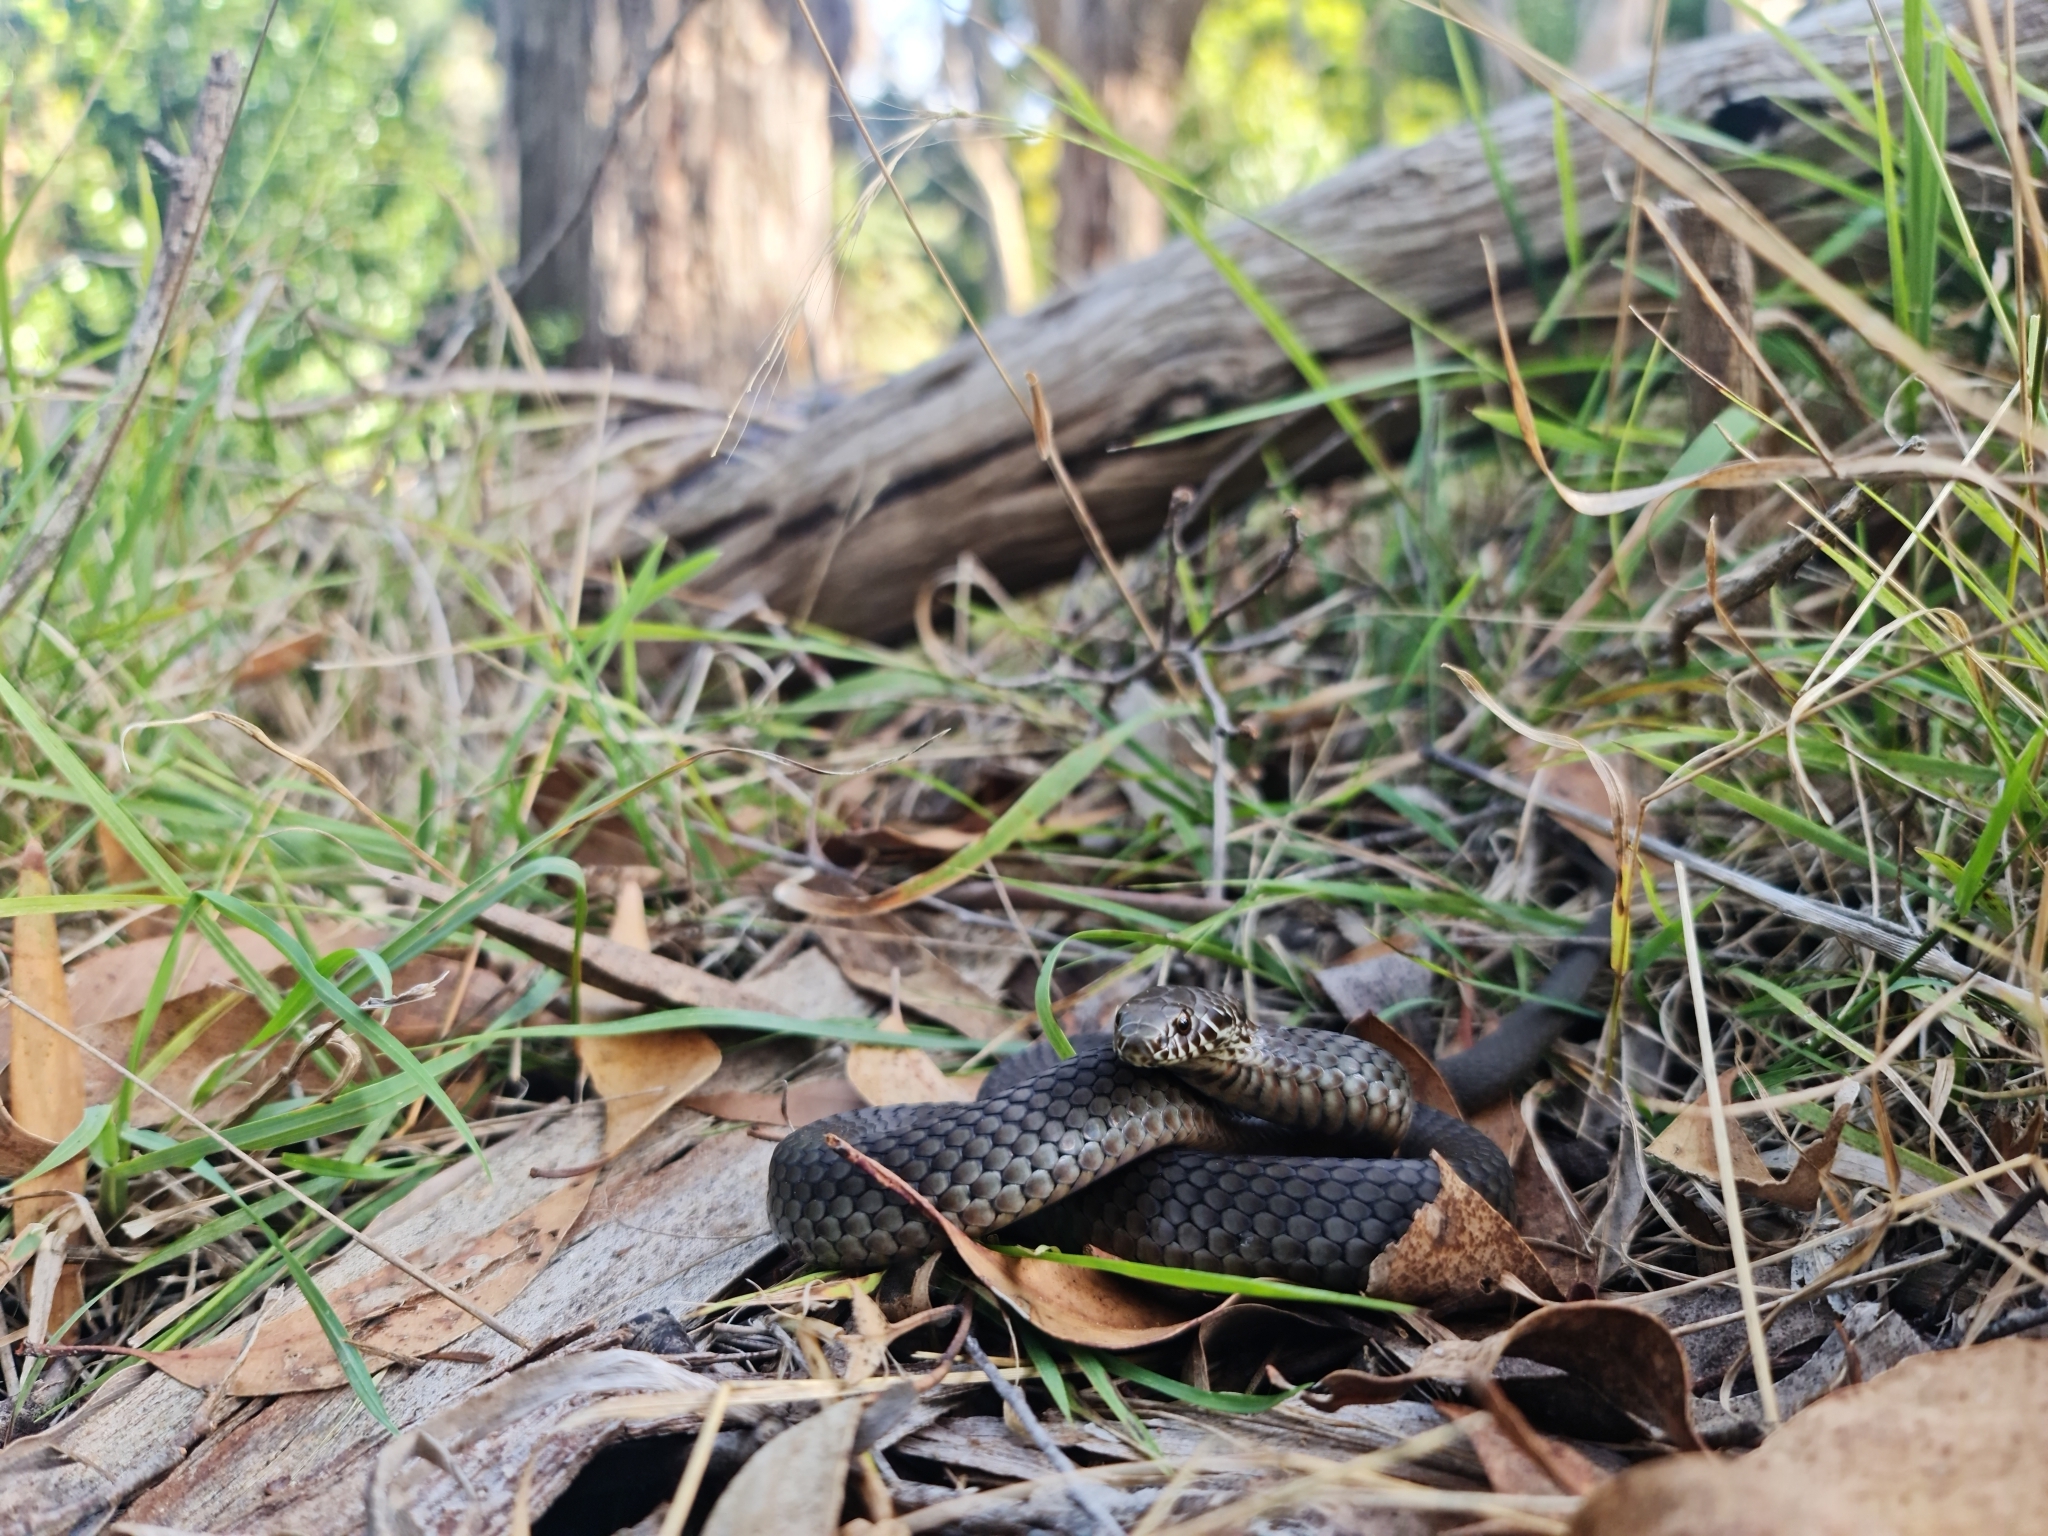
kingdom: Animalia
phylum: Chordata
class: Squamata
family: Elapidae
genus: Austrelaps
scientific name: Austrelaps labialis
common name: Pygmy copperhead
